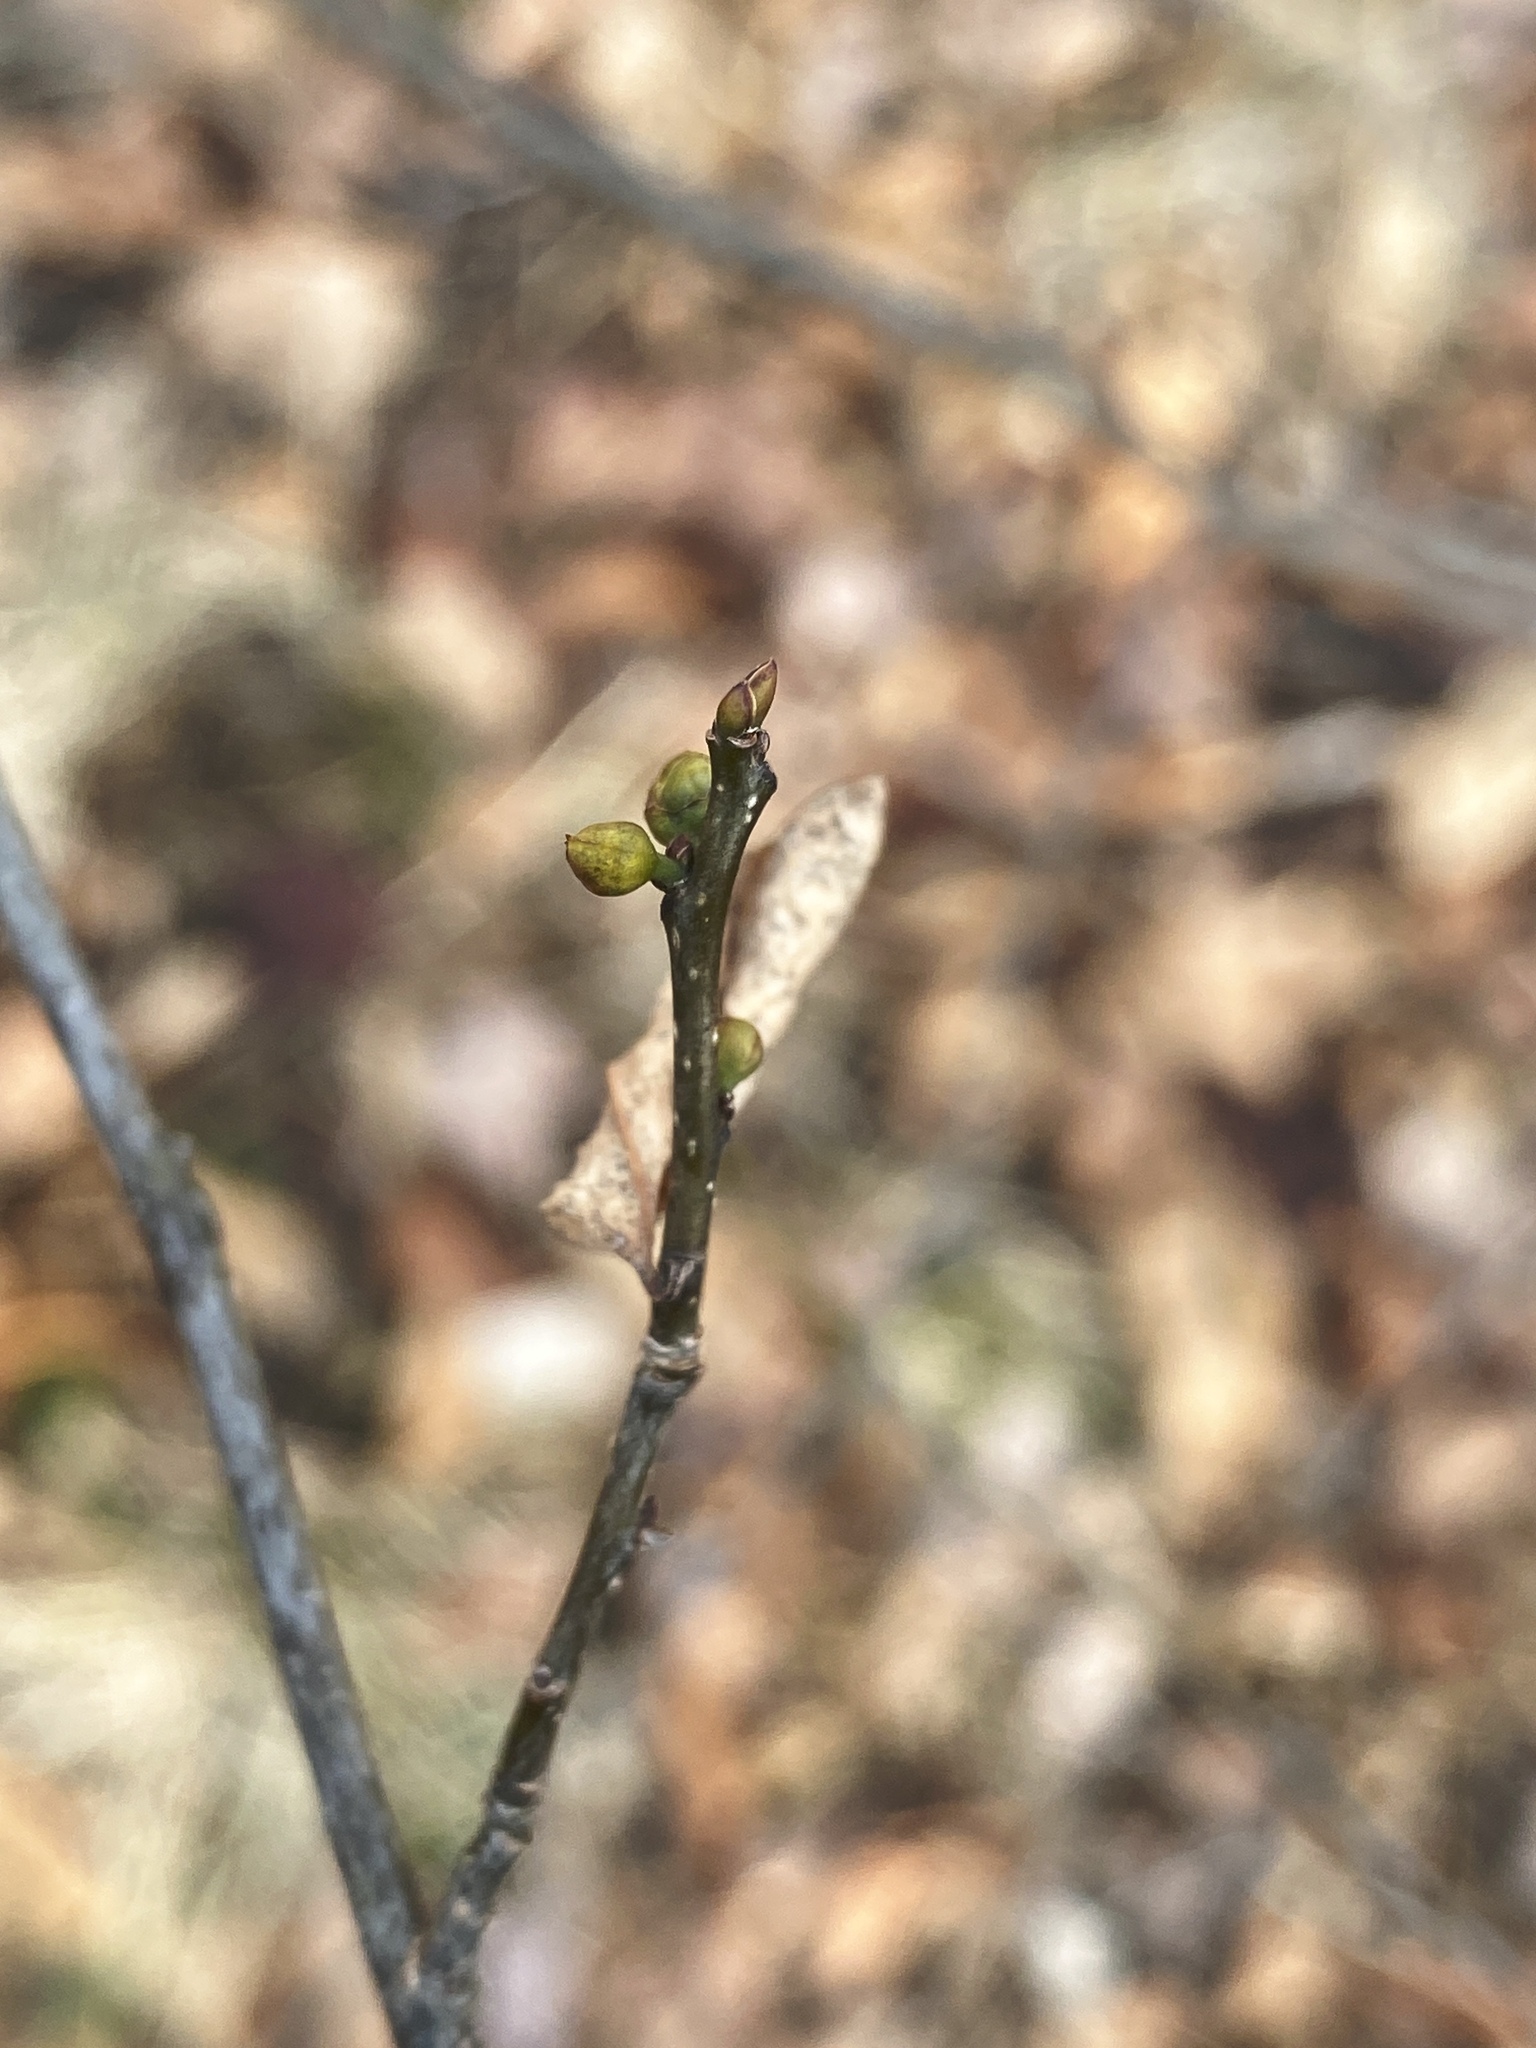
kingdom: Plantae
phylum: Tracheophyta
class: Magnoliopsida
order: Laurales
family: Lauraceae
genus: Lindera
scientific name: Lindera benzoin
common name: Spicebush
